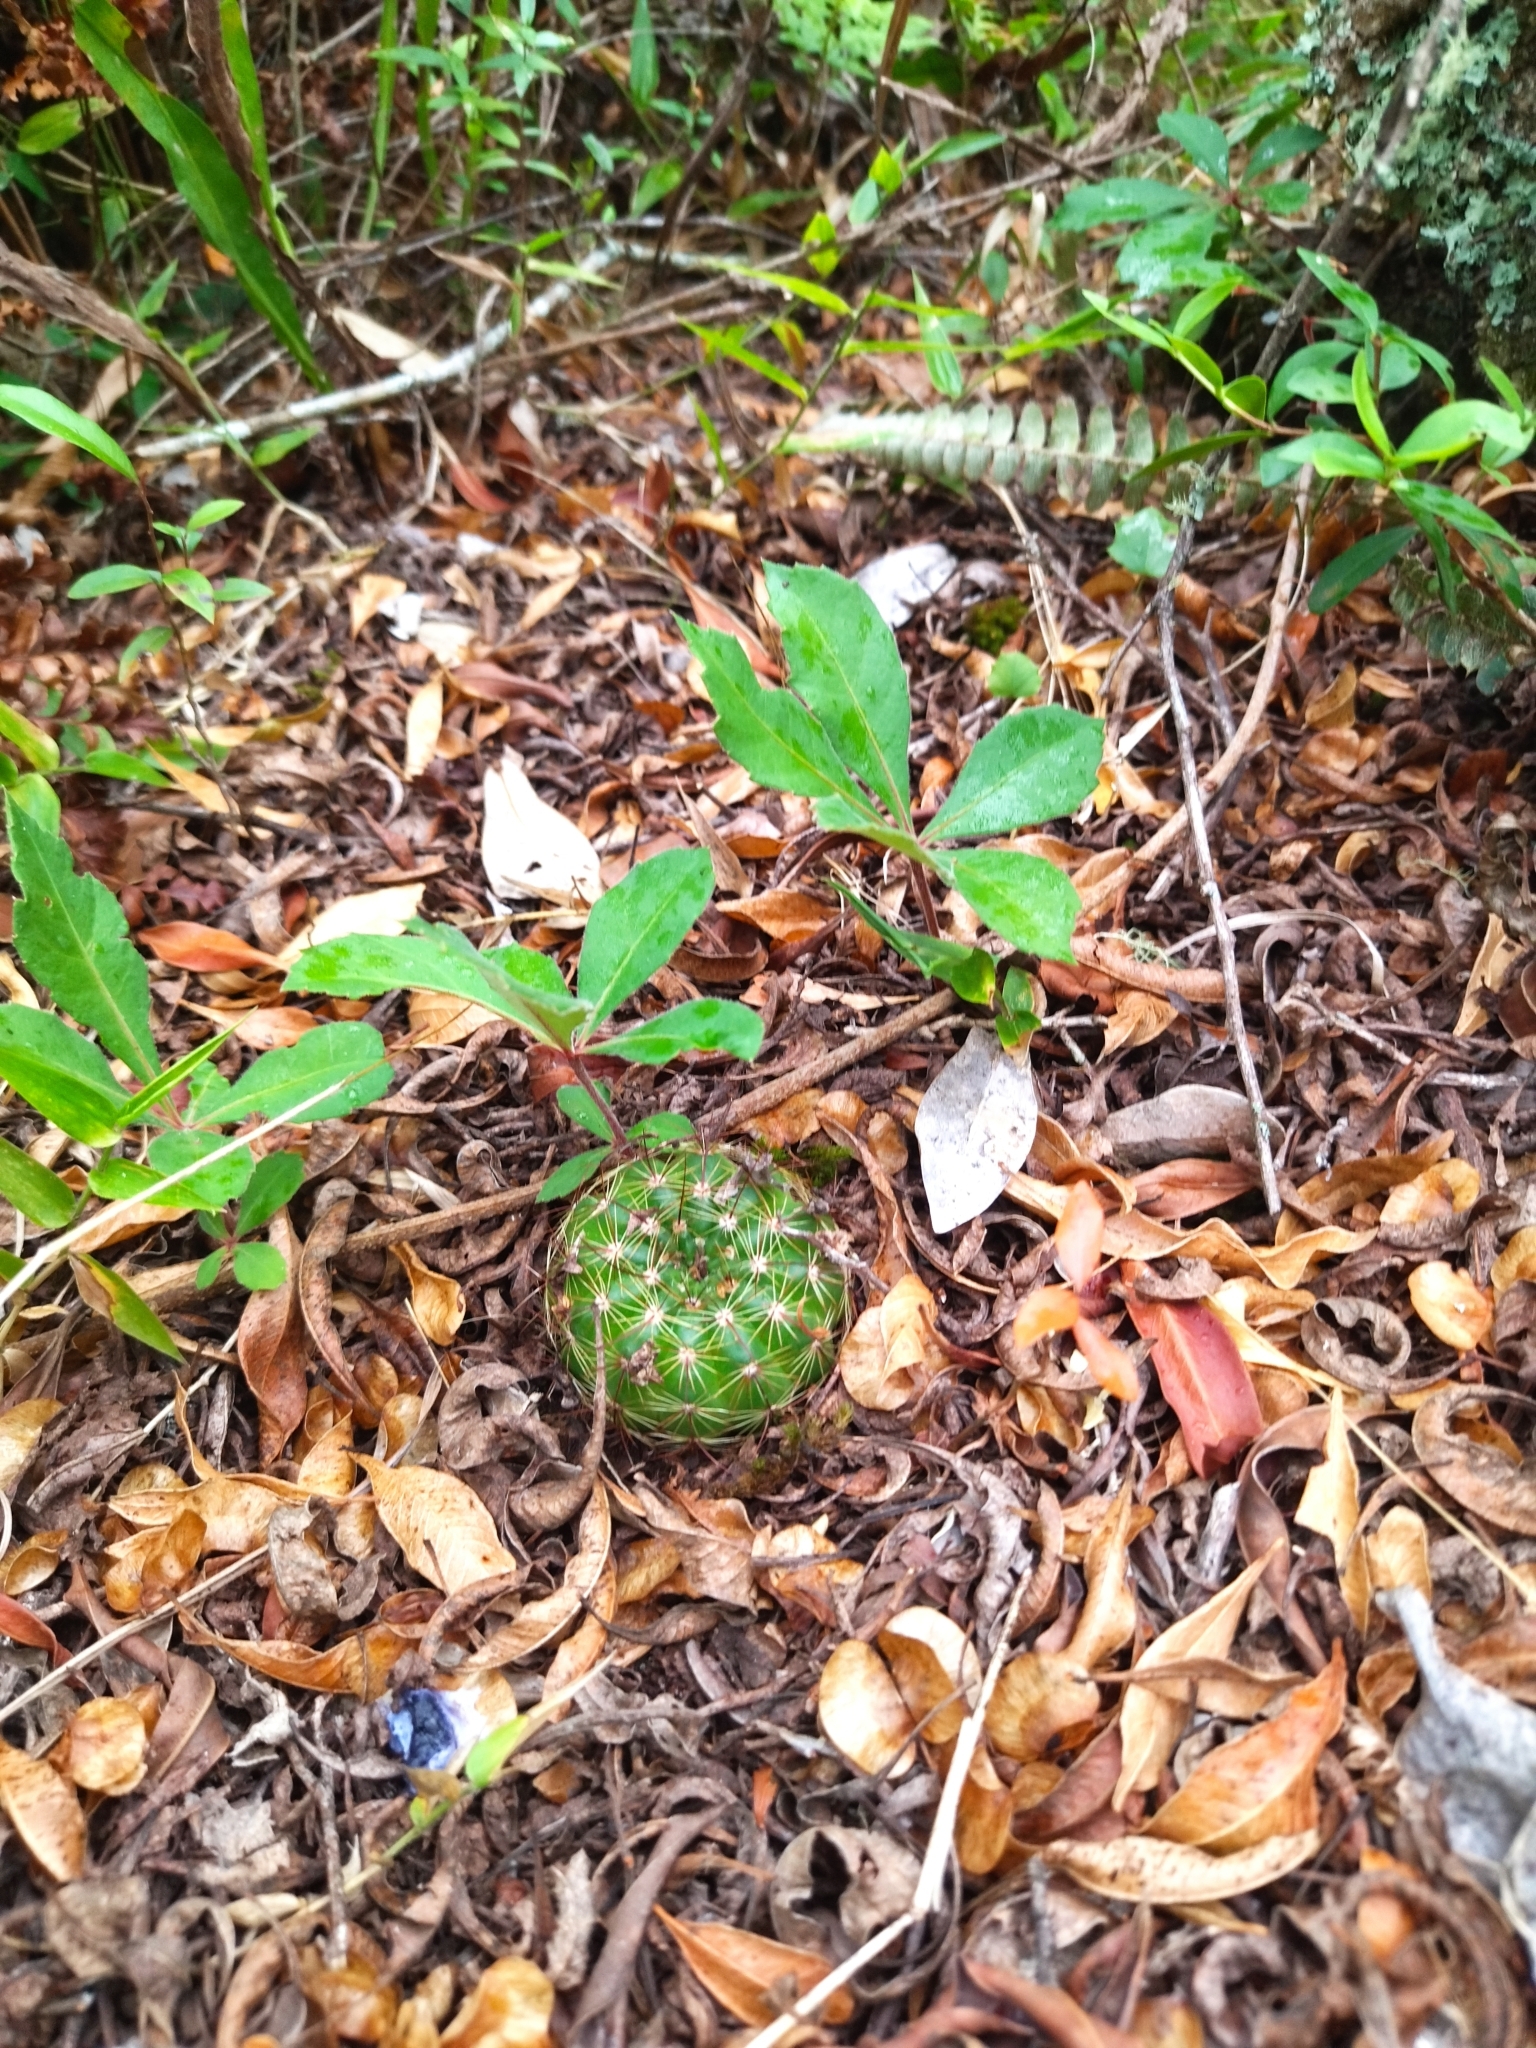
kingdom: Plantae
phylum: Tracheophyta
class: Magnoliopsida
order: Caryophyllales
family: Cactaceae
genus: Parodia
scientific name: Parodia ottonis
